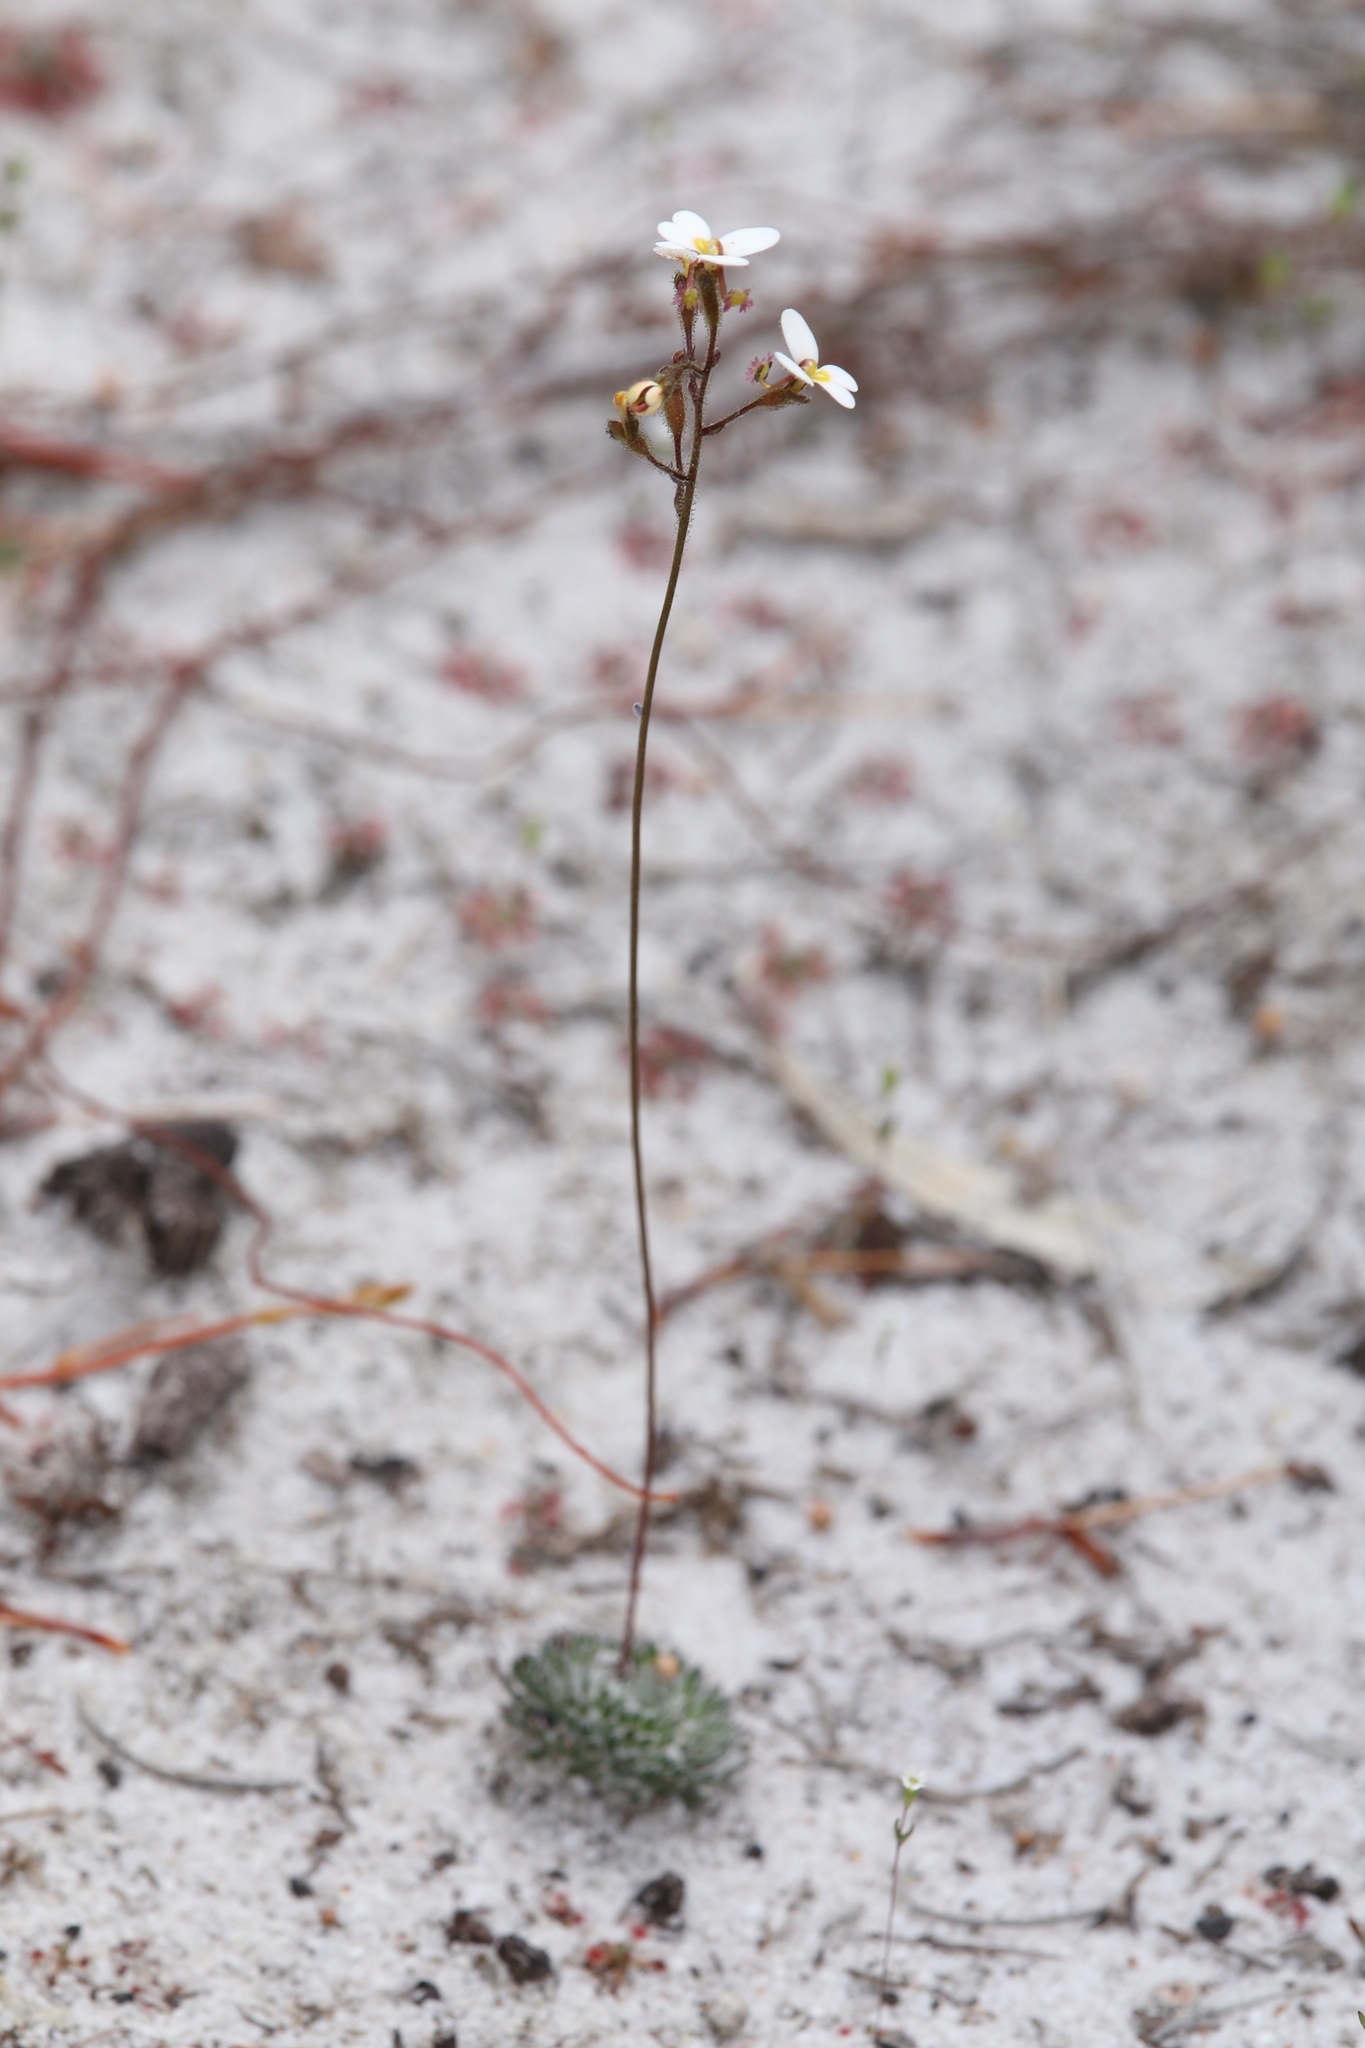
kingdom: Plantae
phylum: Tracheophyta
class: Magnoliopsida
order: Asterales
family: Stylidiaceae
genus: Stylidium
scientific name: Stylidium piliferum
